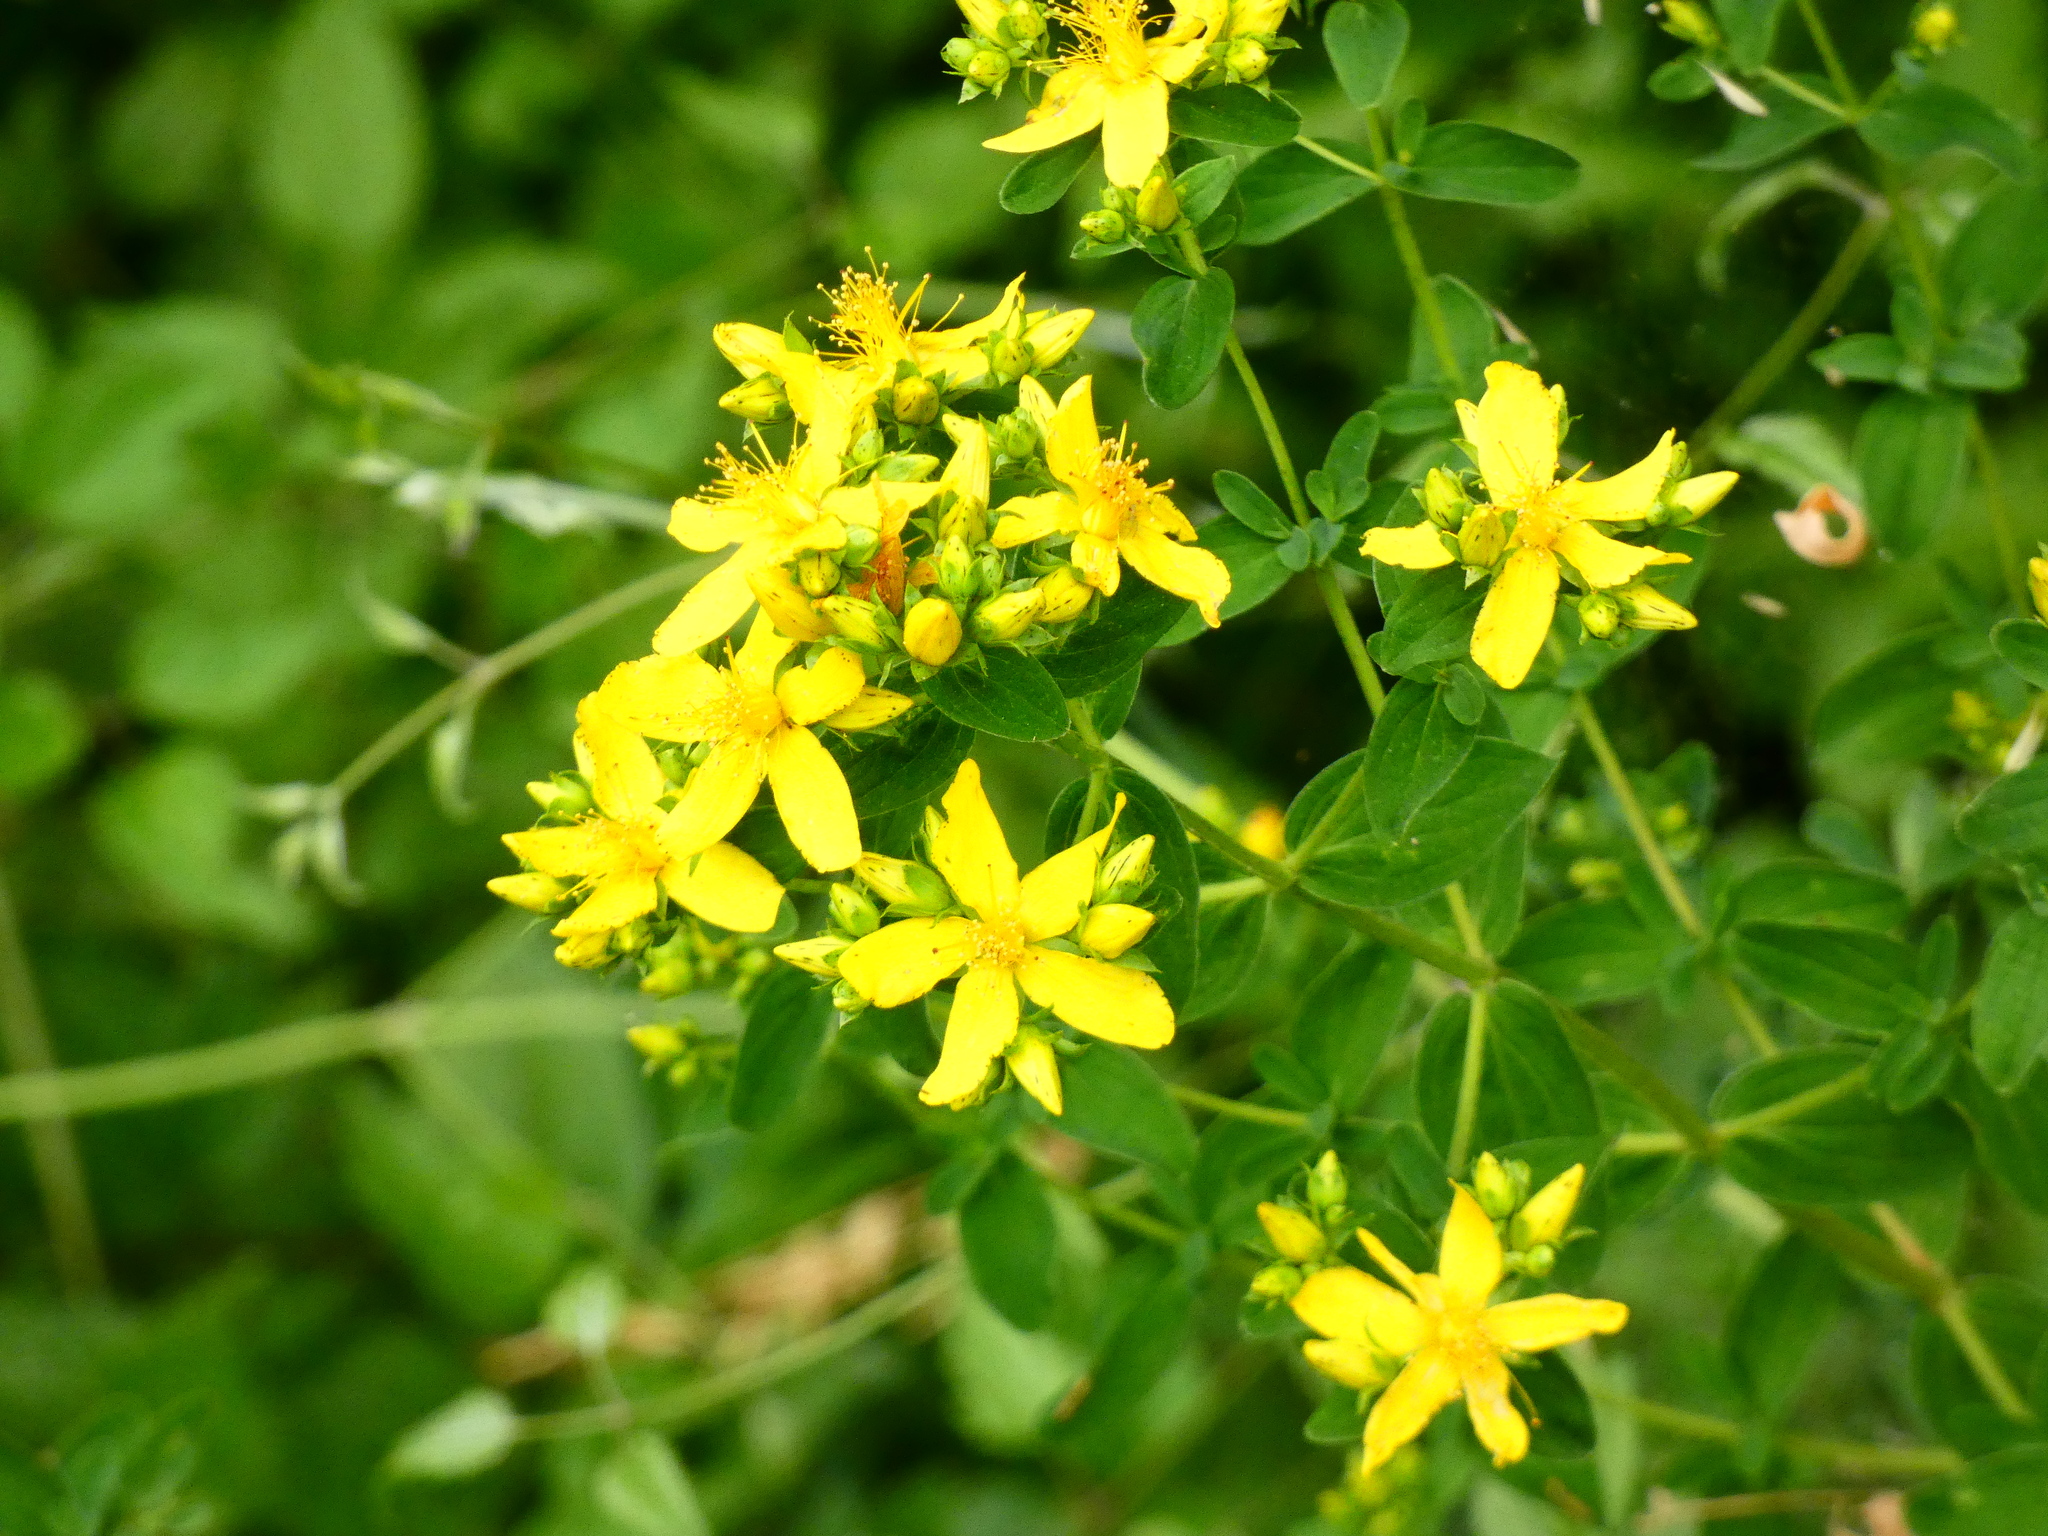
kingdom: Plantae
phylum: Tracheophyta
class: Magnoliopsida
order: Malpighiales
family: Hypericaceae
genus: Hypericum
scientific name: Hypericum perforatum
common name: Common st. johnswort
